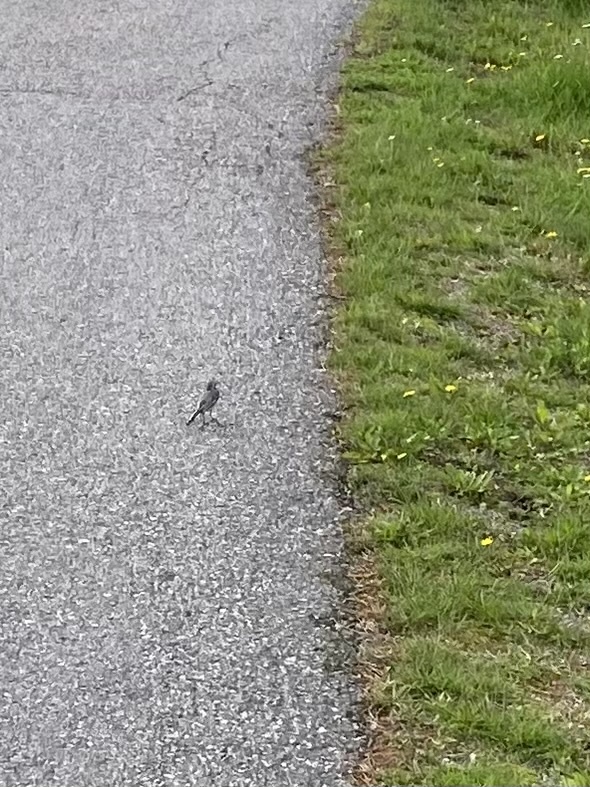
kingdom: Animalia
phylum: Chordata
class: Aves
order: Passeriformes
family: Motacillidae
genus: Motacilla
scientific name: Motacilla alba
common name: White wagtail
